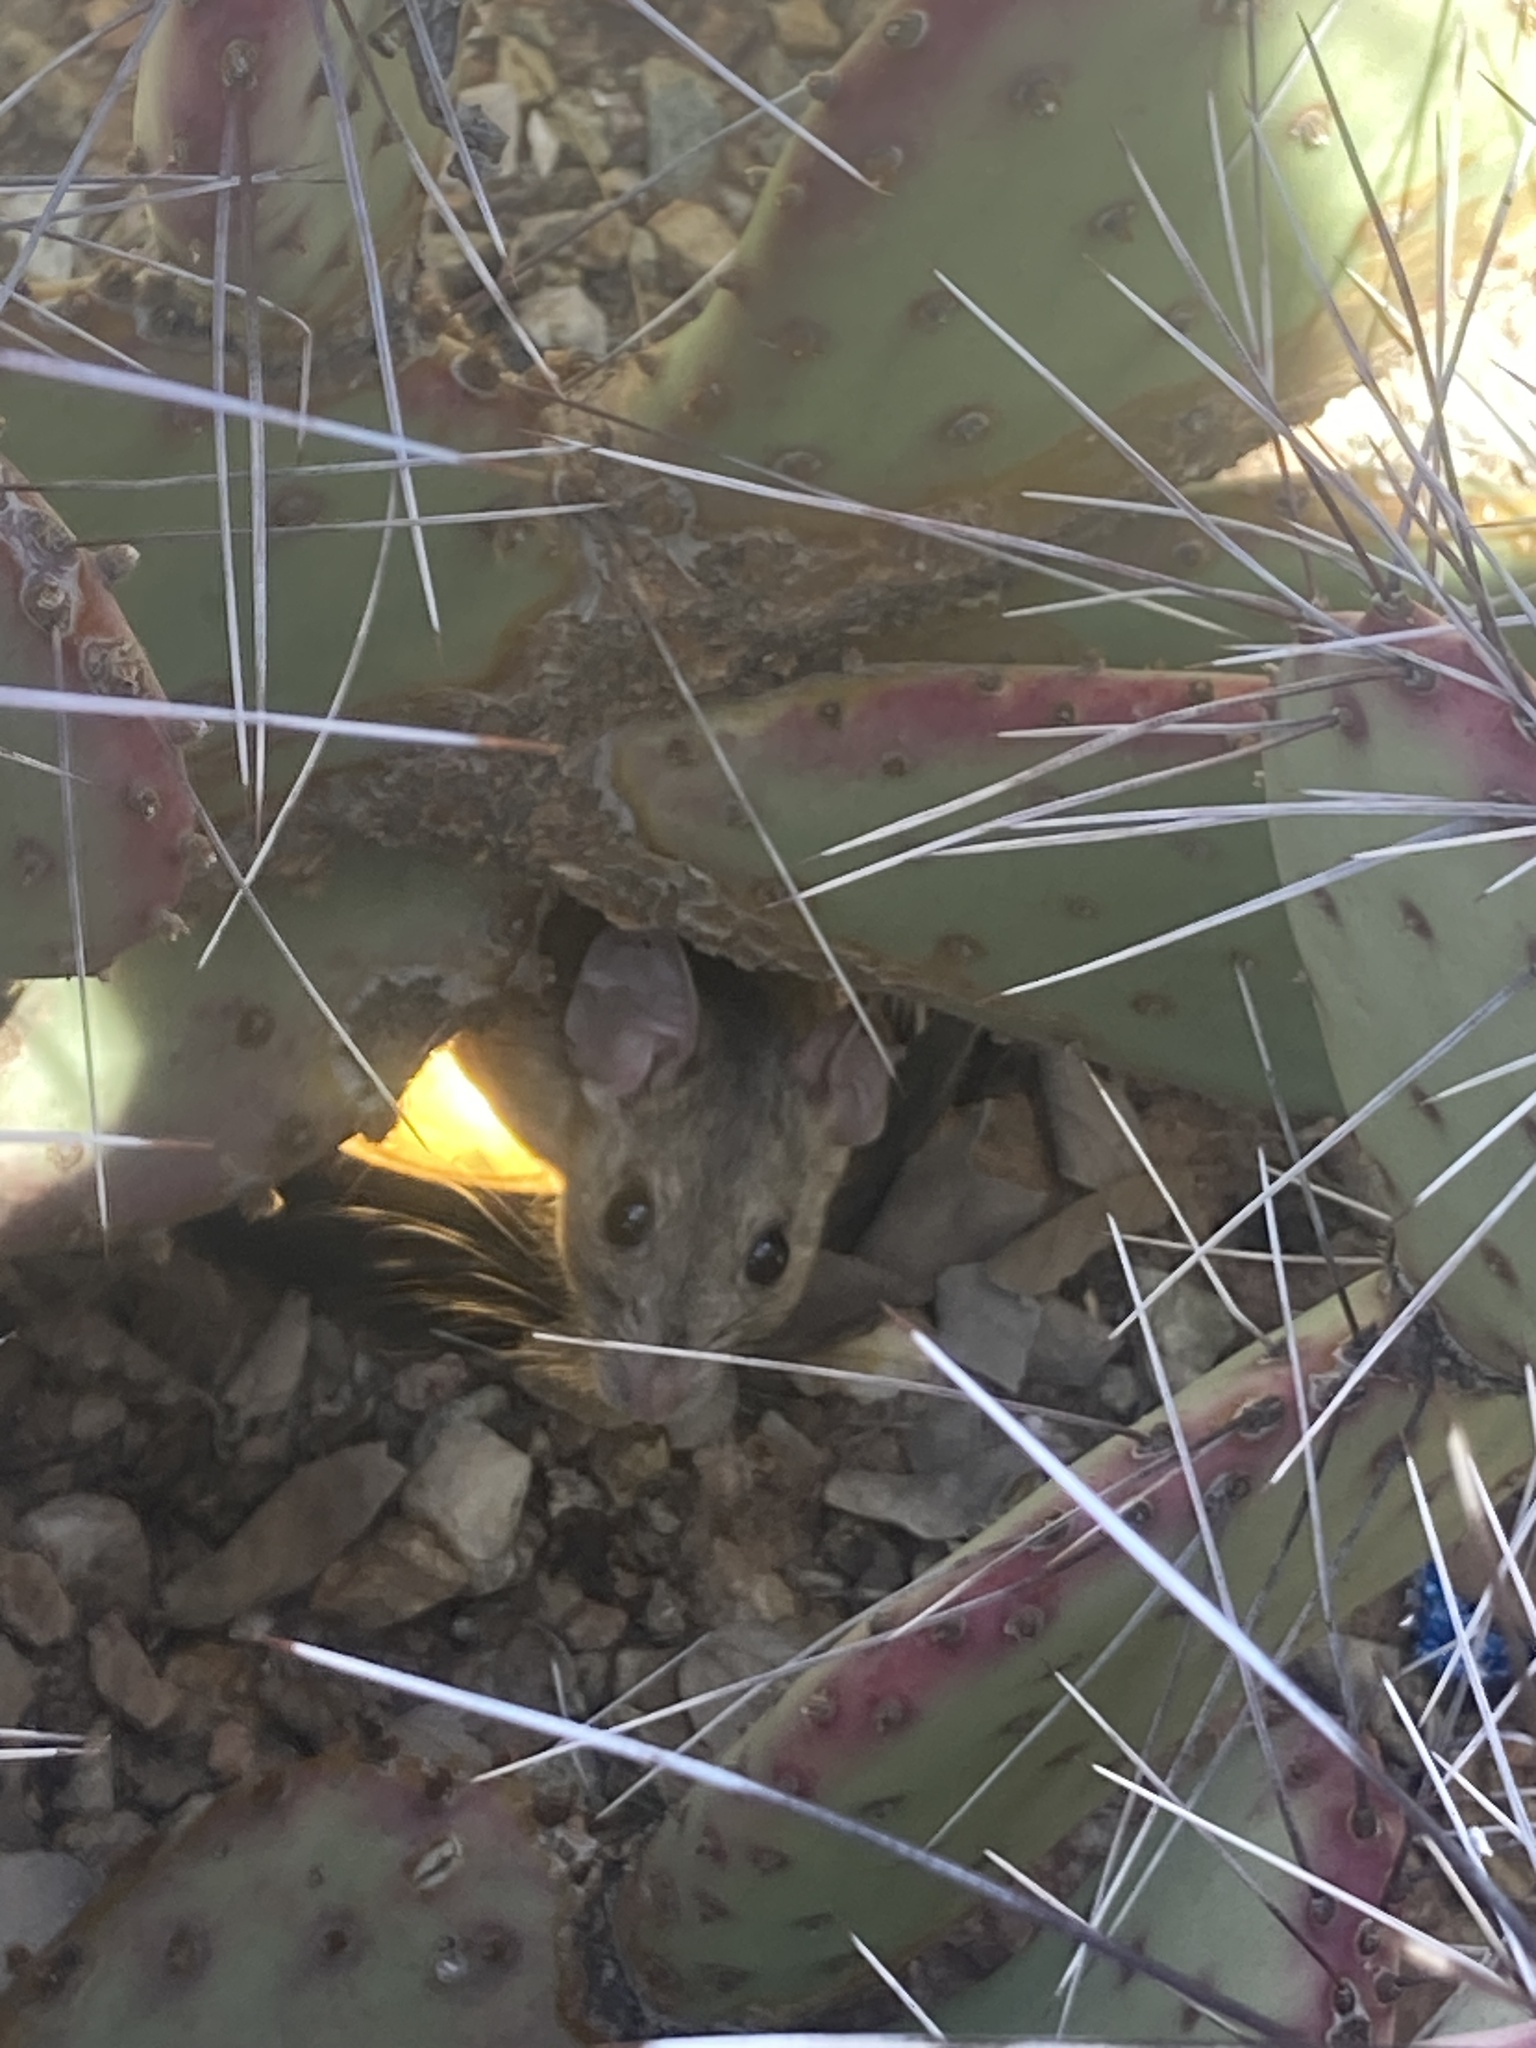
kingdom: Animalia
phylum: Chordata
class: Mammalia
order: Rodentia
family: Cricetidae
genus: Neotoma
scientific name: Neotoma albigula
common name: White-throated woodrat
